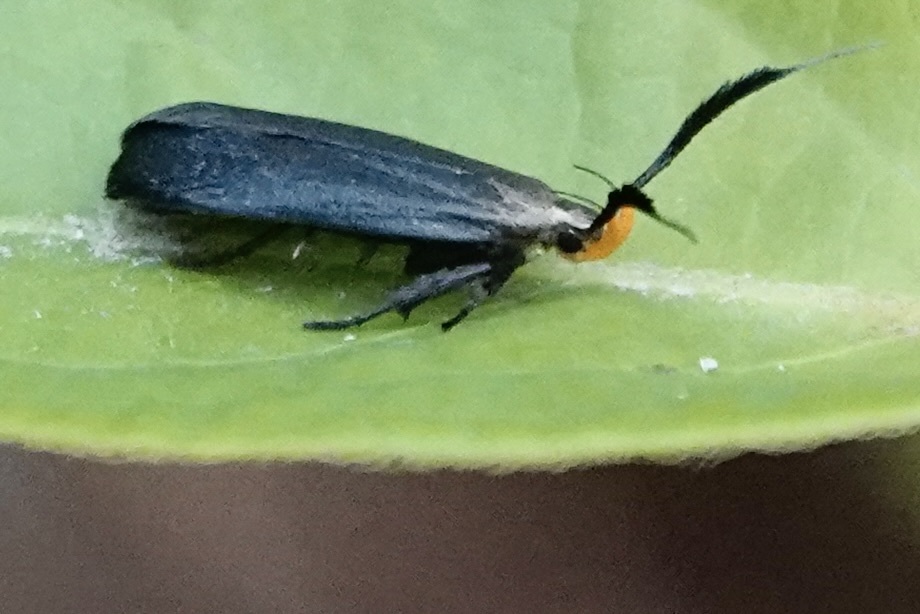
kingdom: Animalia
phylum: Arthropoda
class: Insecta
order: Lepidoptera
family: Gelechiidae
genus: Dichomeris
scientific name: Dichomeris nonstrigella
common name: Little devil moth
